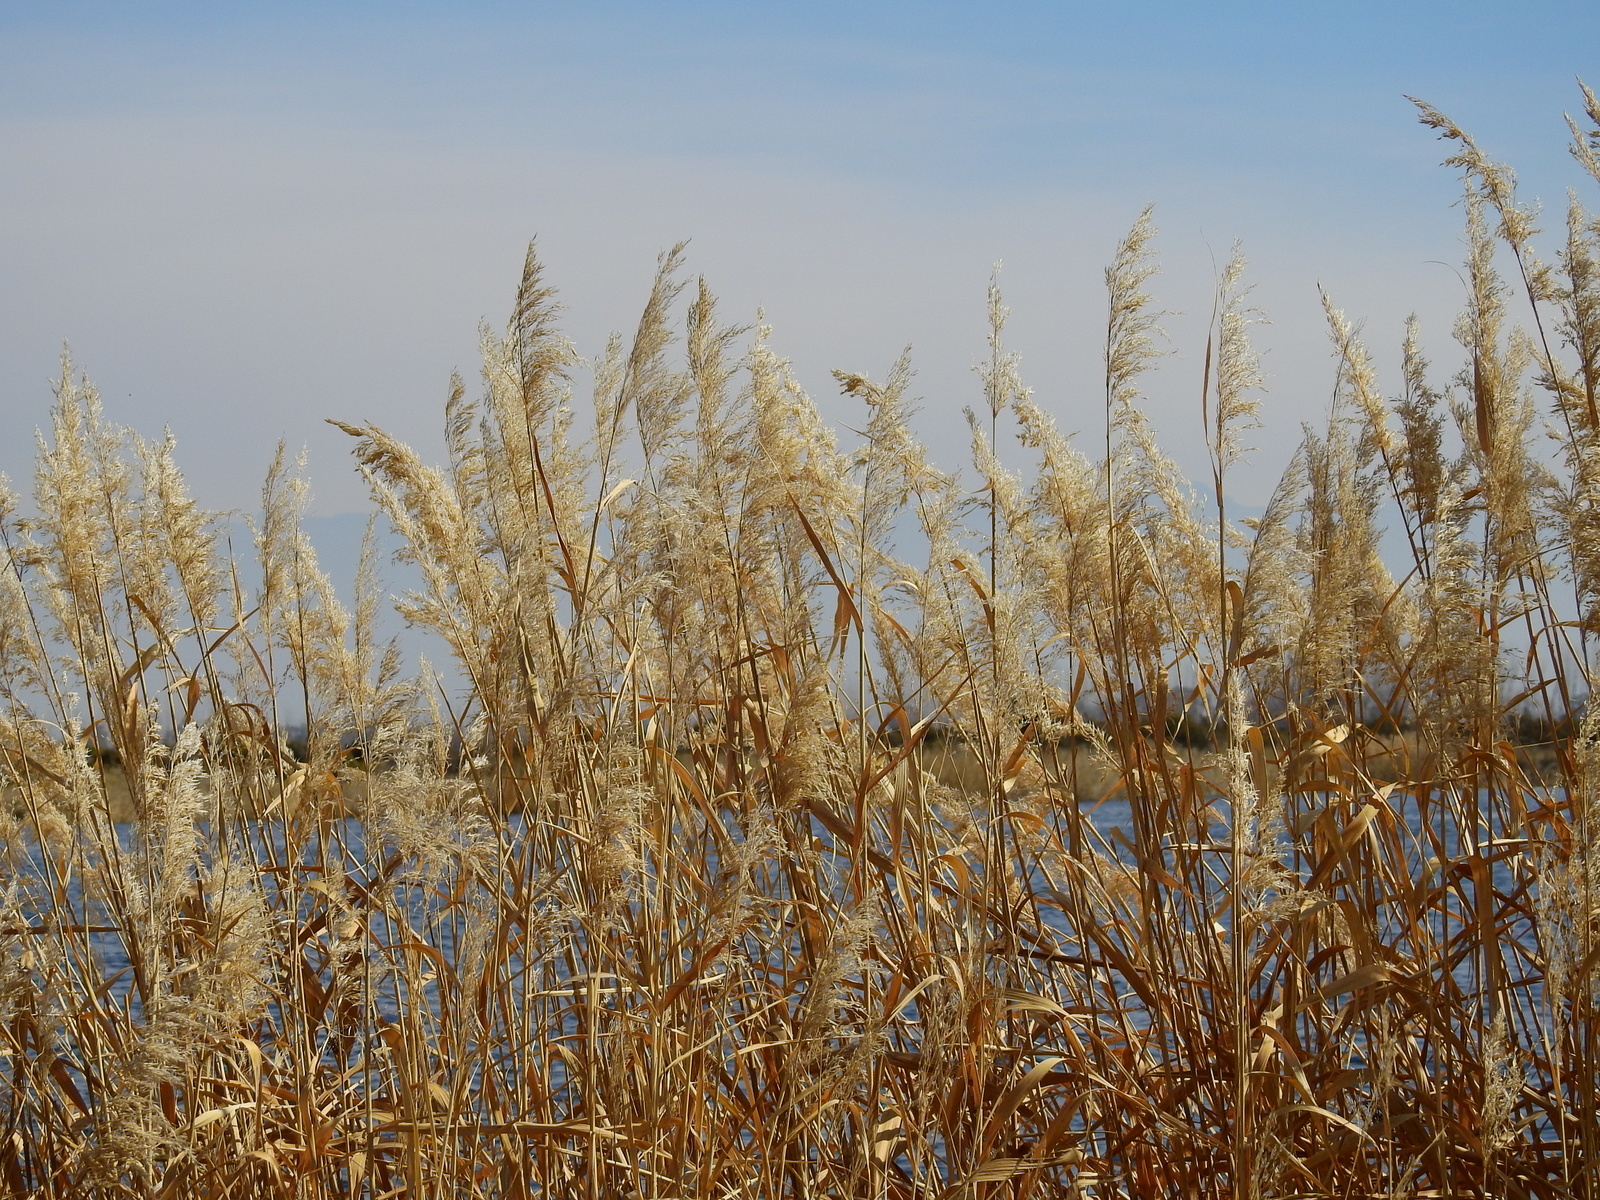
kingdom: Plantae
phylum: Tracheophyta
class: Liliopsida
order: Poales
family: Poaceae
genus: Phragmites
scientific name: Phragmites australis
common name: Common reed
